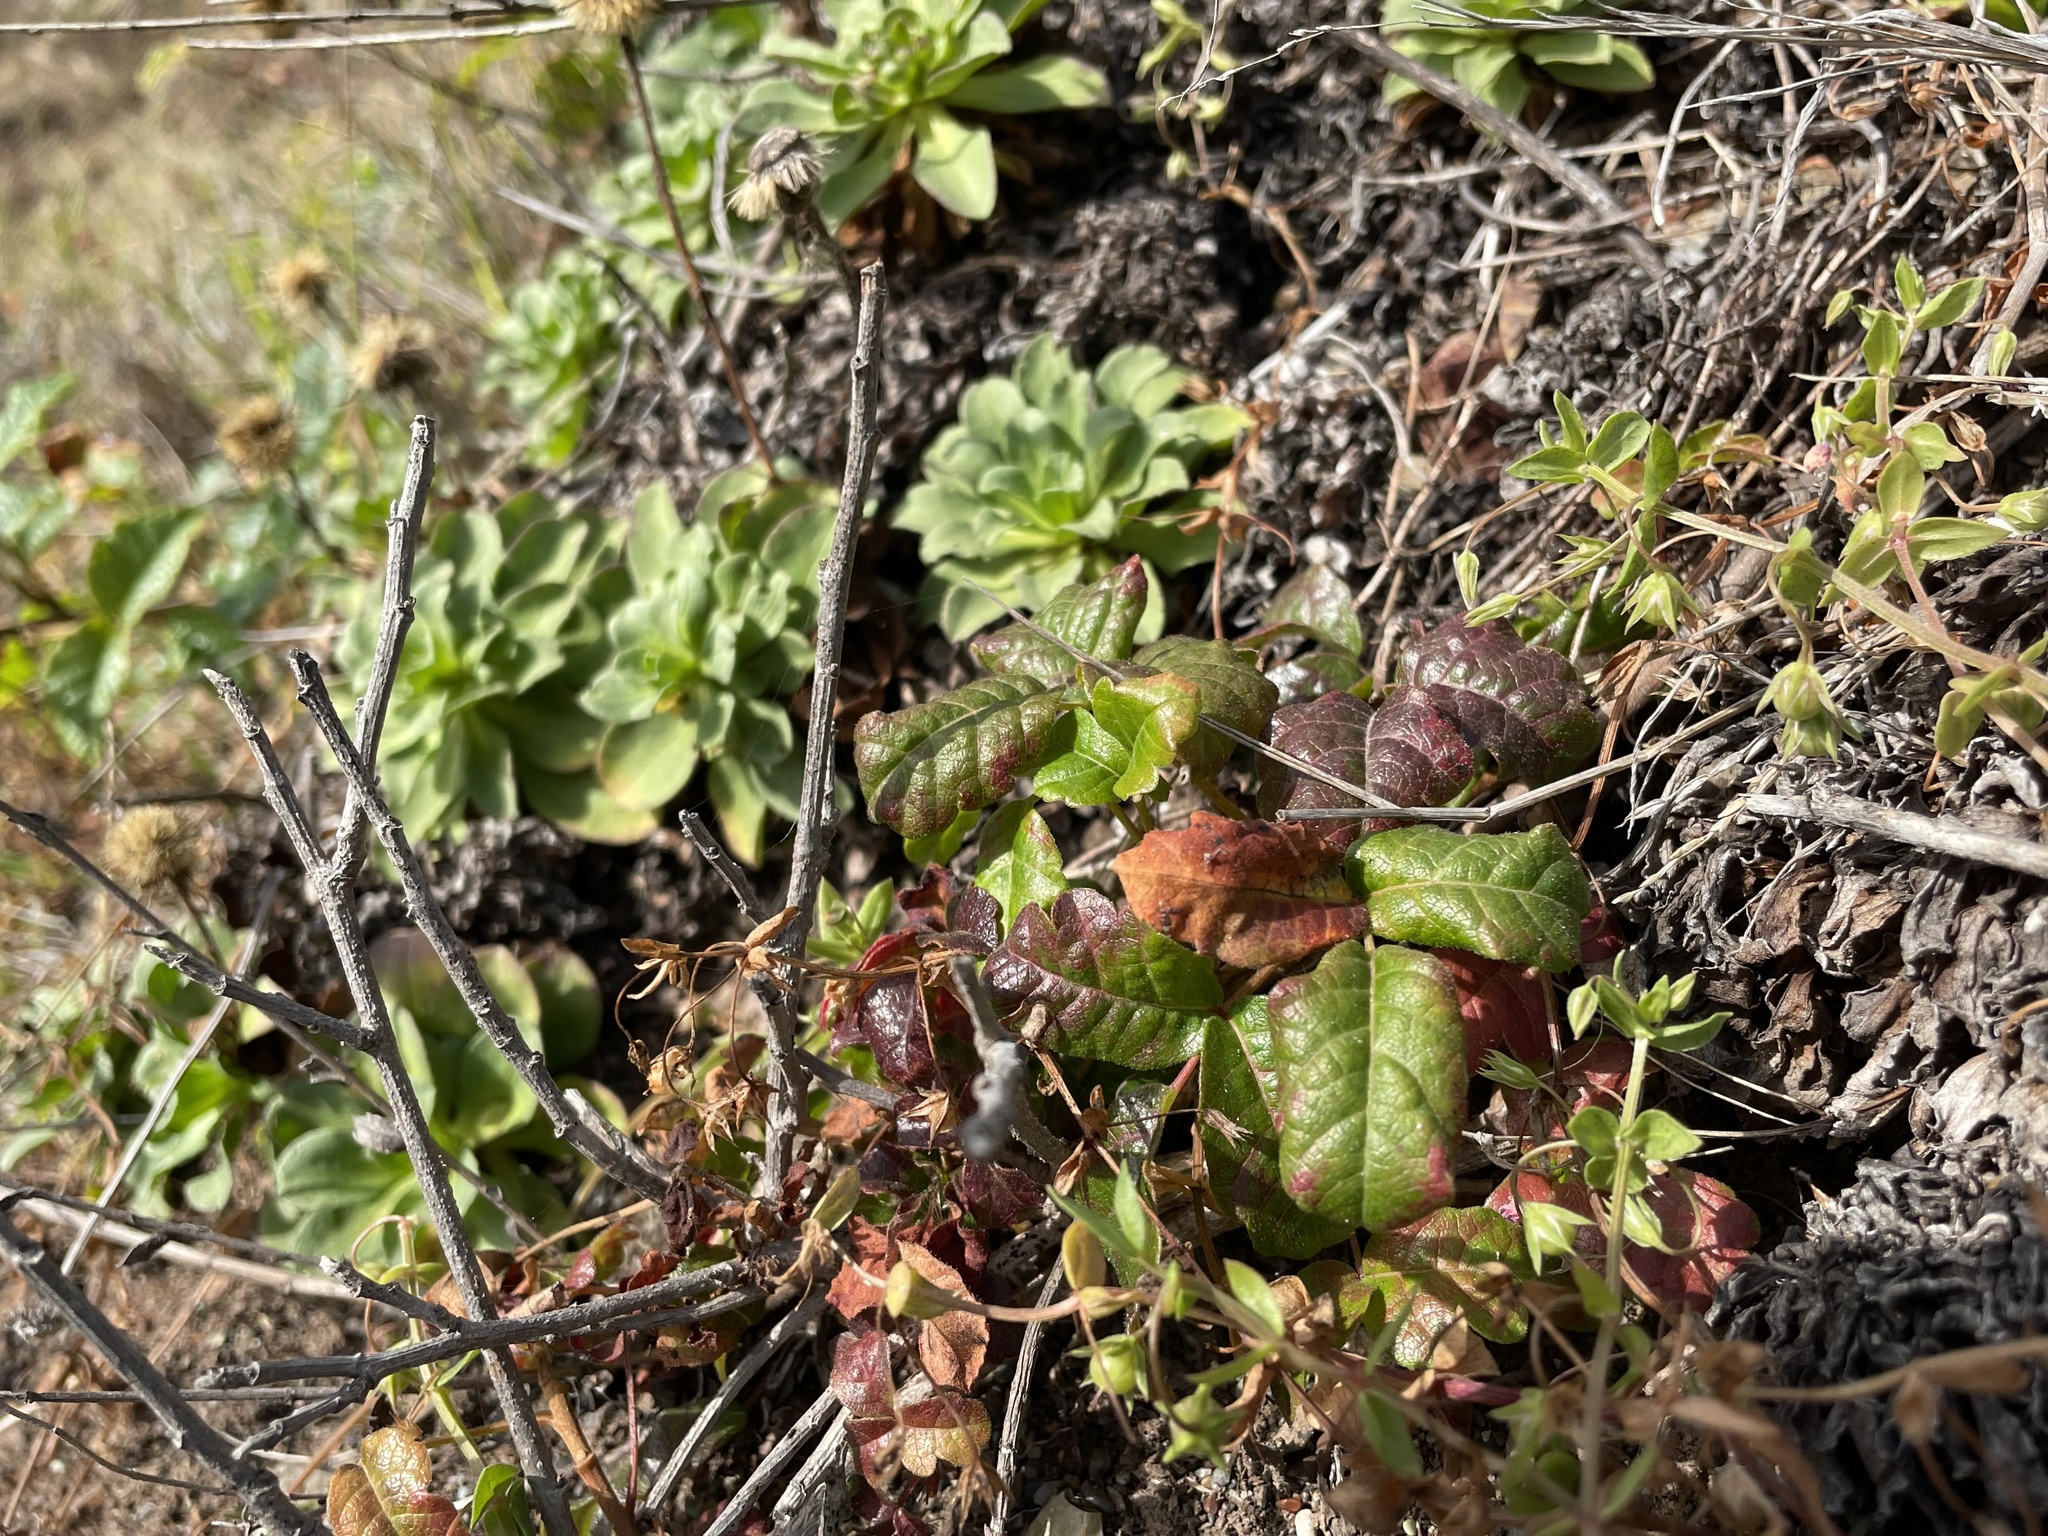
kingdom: Plantae
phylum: Tracheophyta
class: Magnoliopsida
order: Sapindales
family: Anacardiaceae
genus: Toxicodendron
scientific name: Toxicodendron diversilobum
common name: Pacific poison-oak
